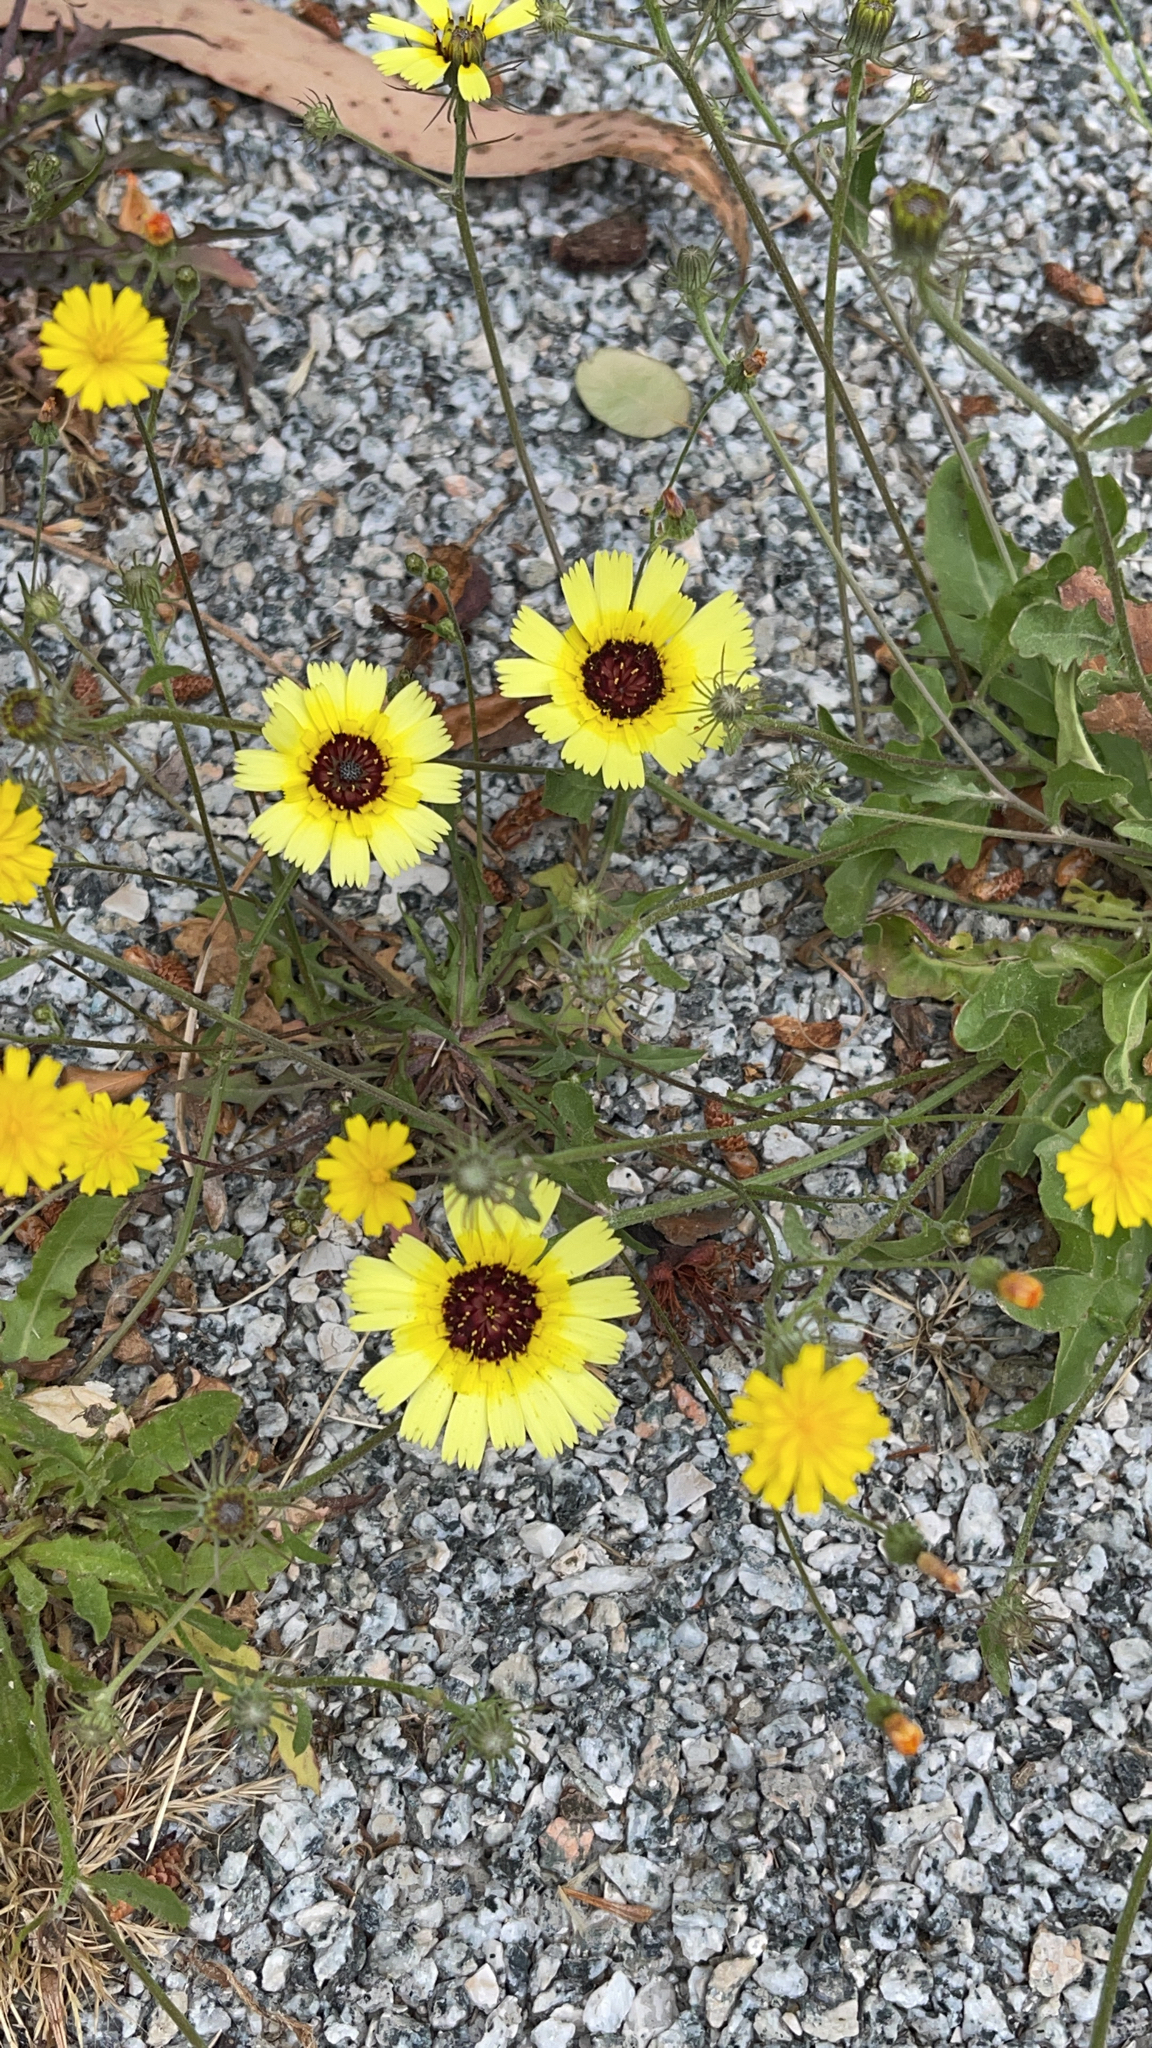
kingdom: Plantae
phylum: Tracheophyta
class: Magnoliopsida
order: Asterales
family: Asteraceae
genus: Tolpis
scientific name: Tolpis barbata
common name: Yellow hawkweed
